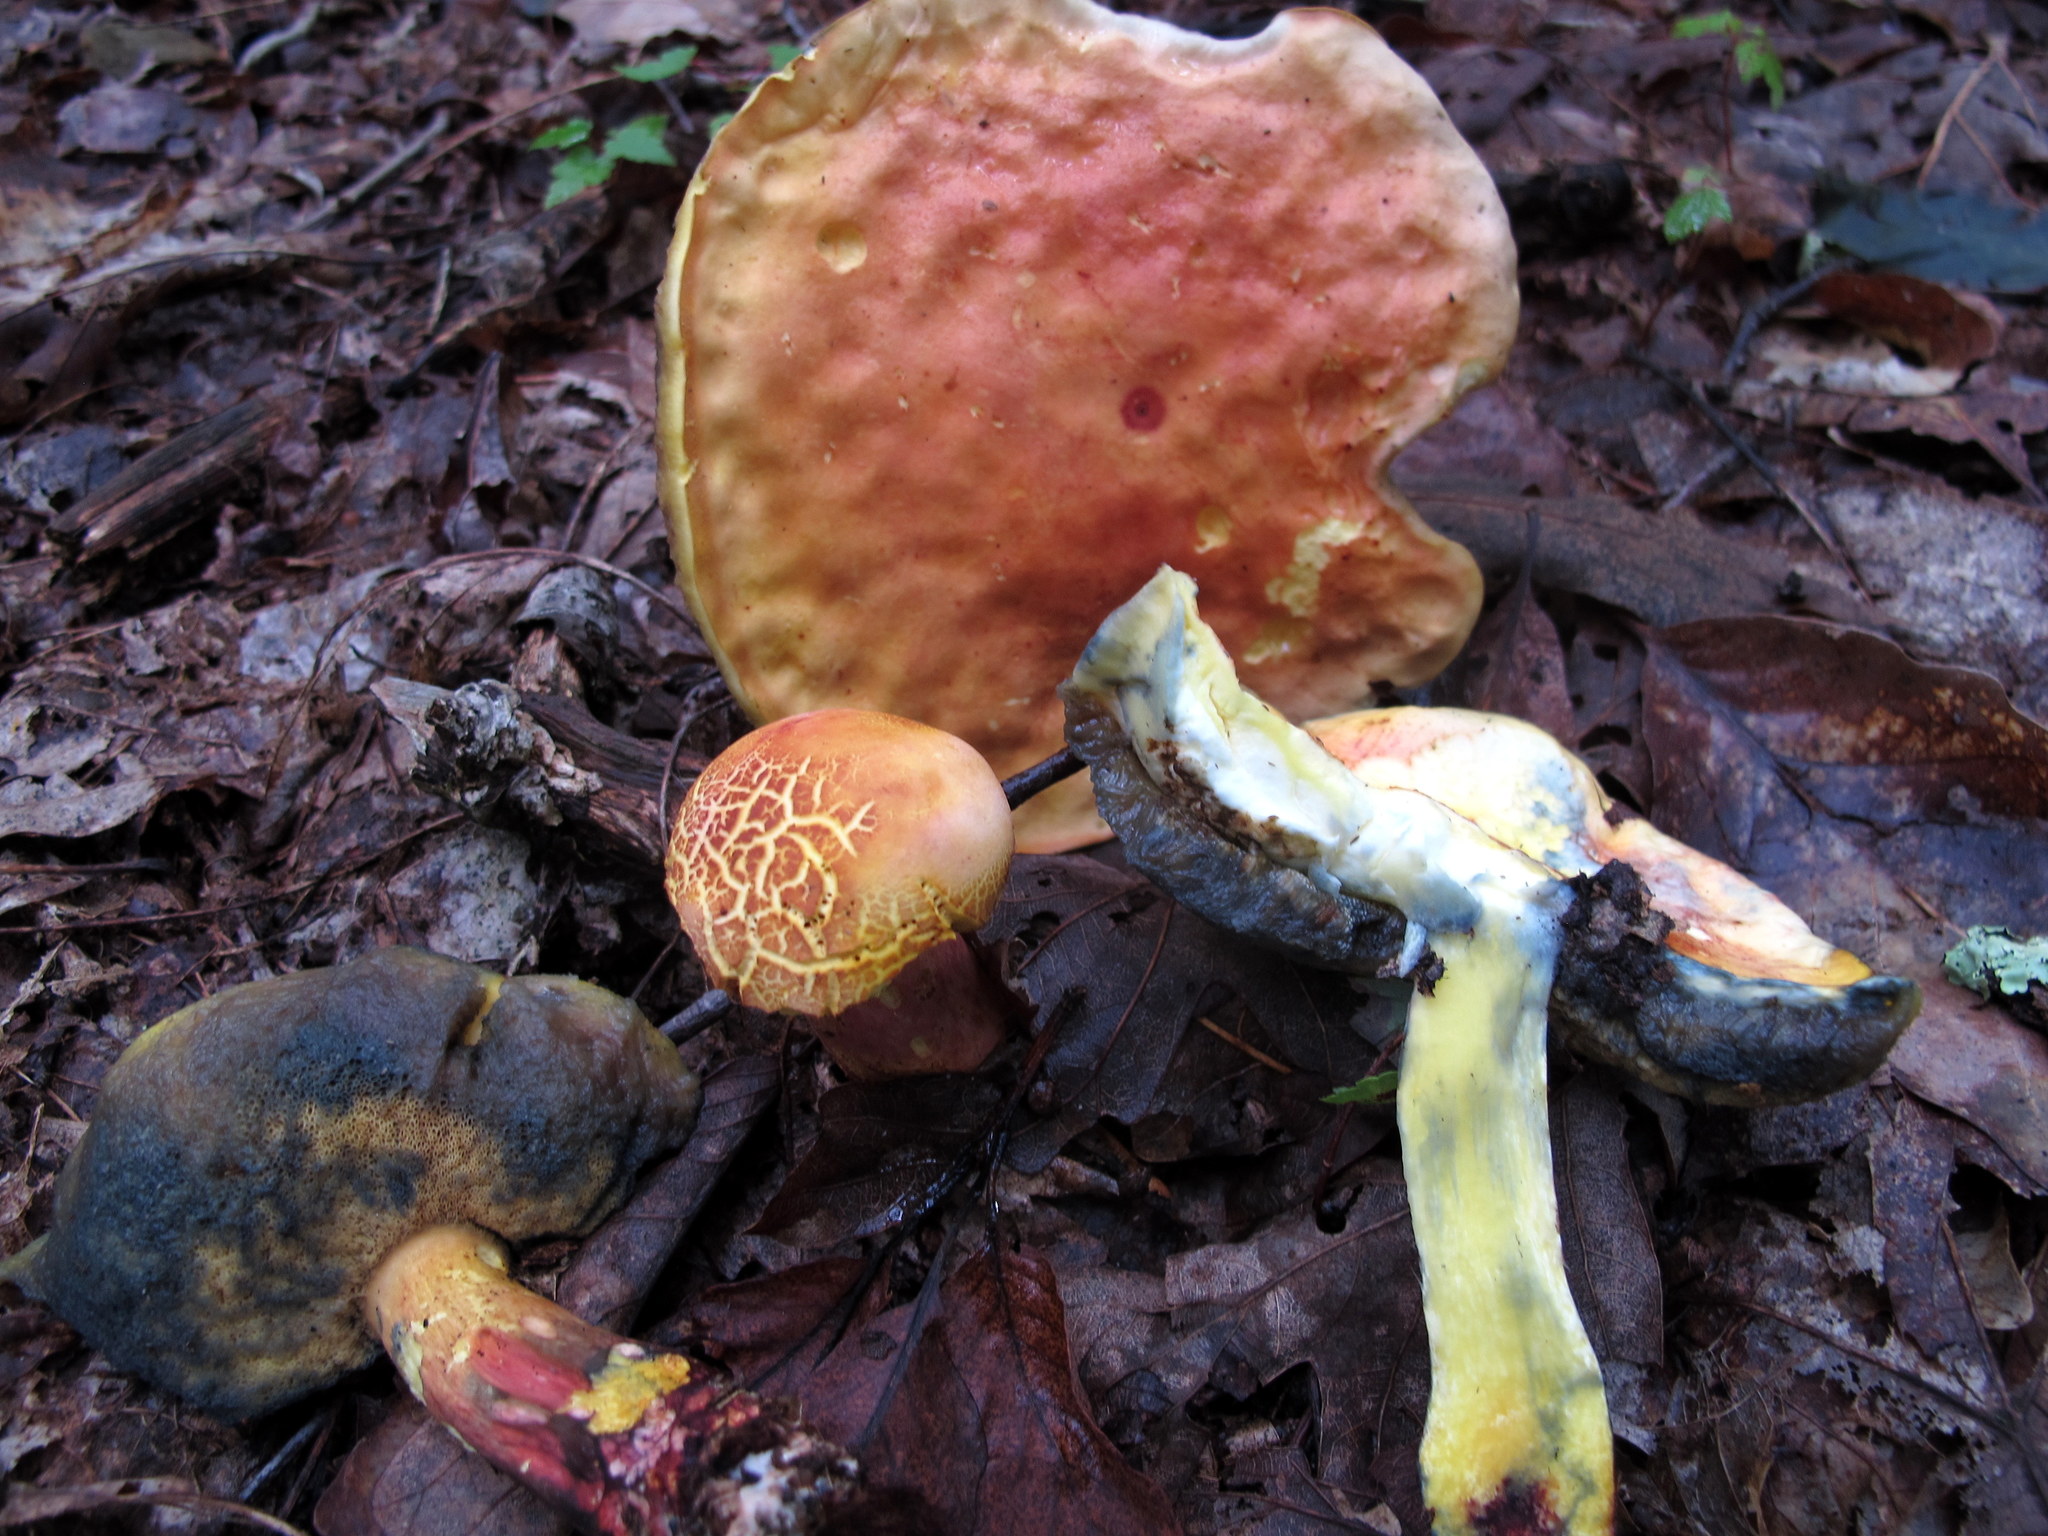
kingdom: Fungi
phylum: Basidiomycota
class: Agaricomycetes
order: Boletales
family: Boletaceae
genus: Boletus
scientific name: Boletus sensibilis
